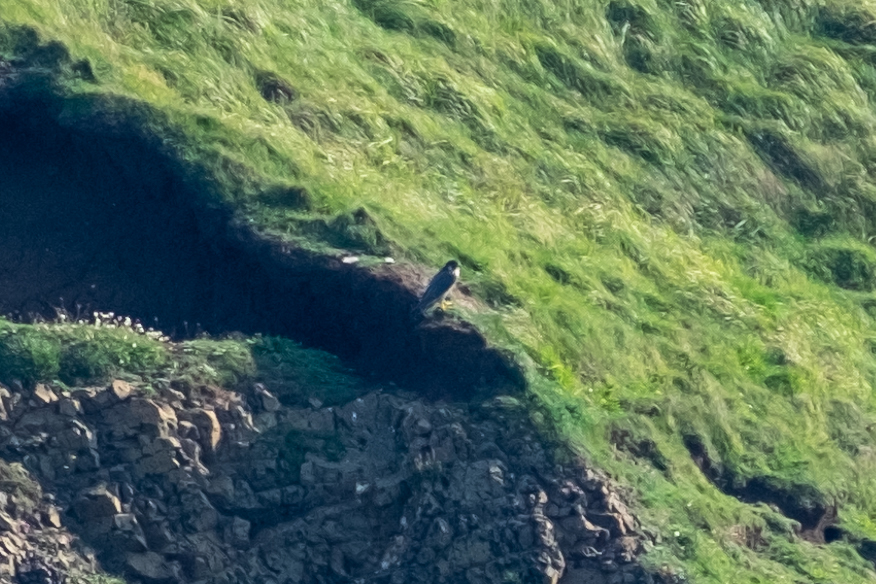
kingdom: Animalia
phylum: Chordata
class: Aves
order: Falconiformes
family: Falconidae
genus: Falco
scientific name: Falco peregrinus
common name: Peregrine falcon
